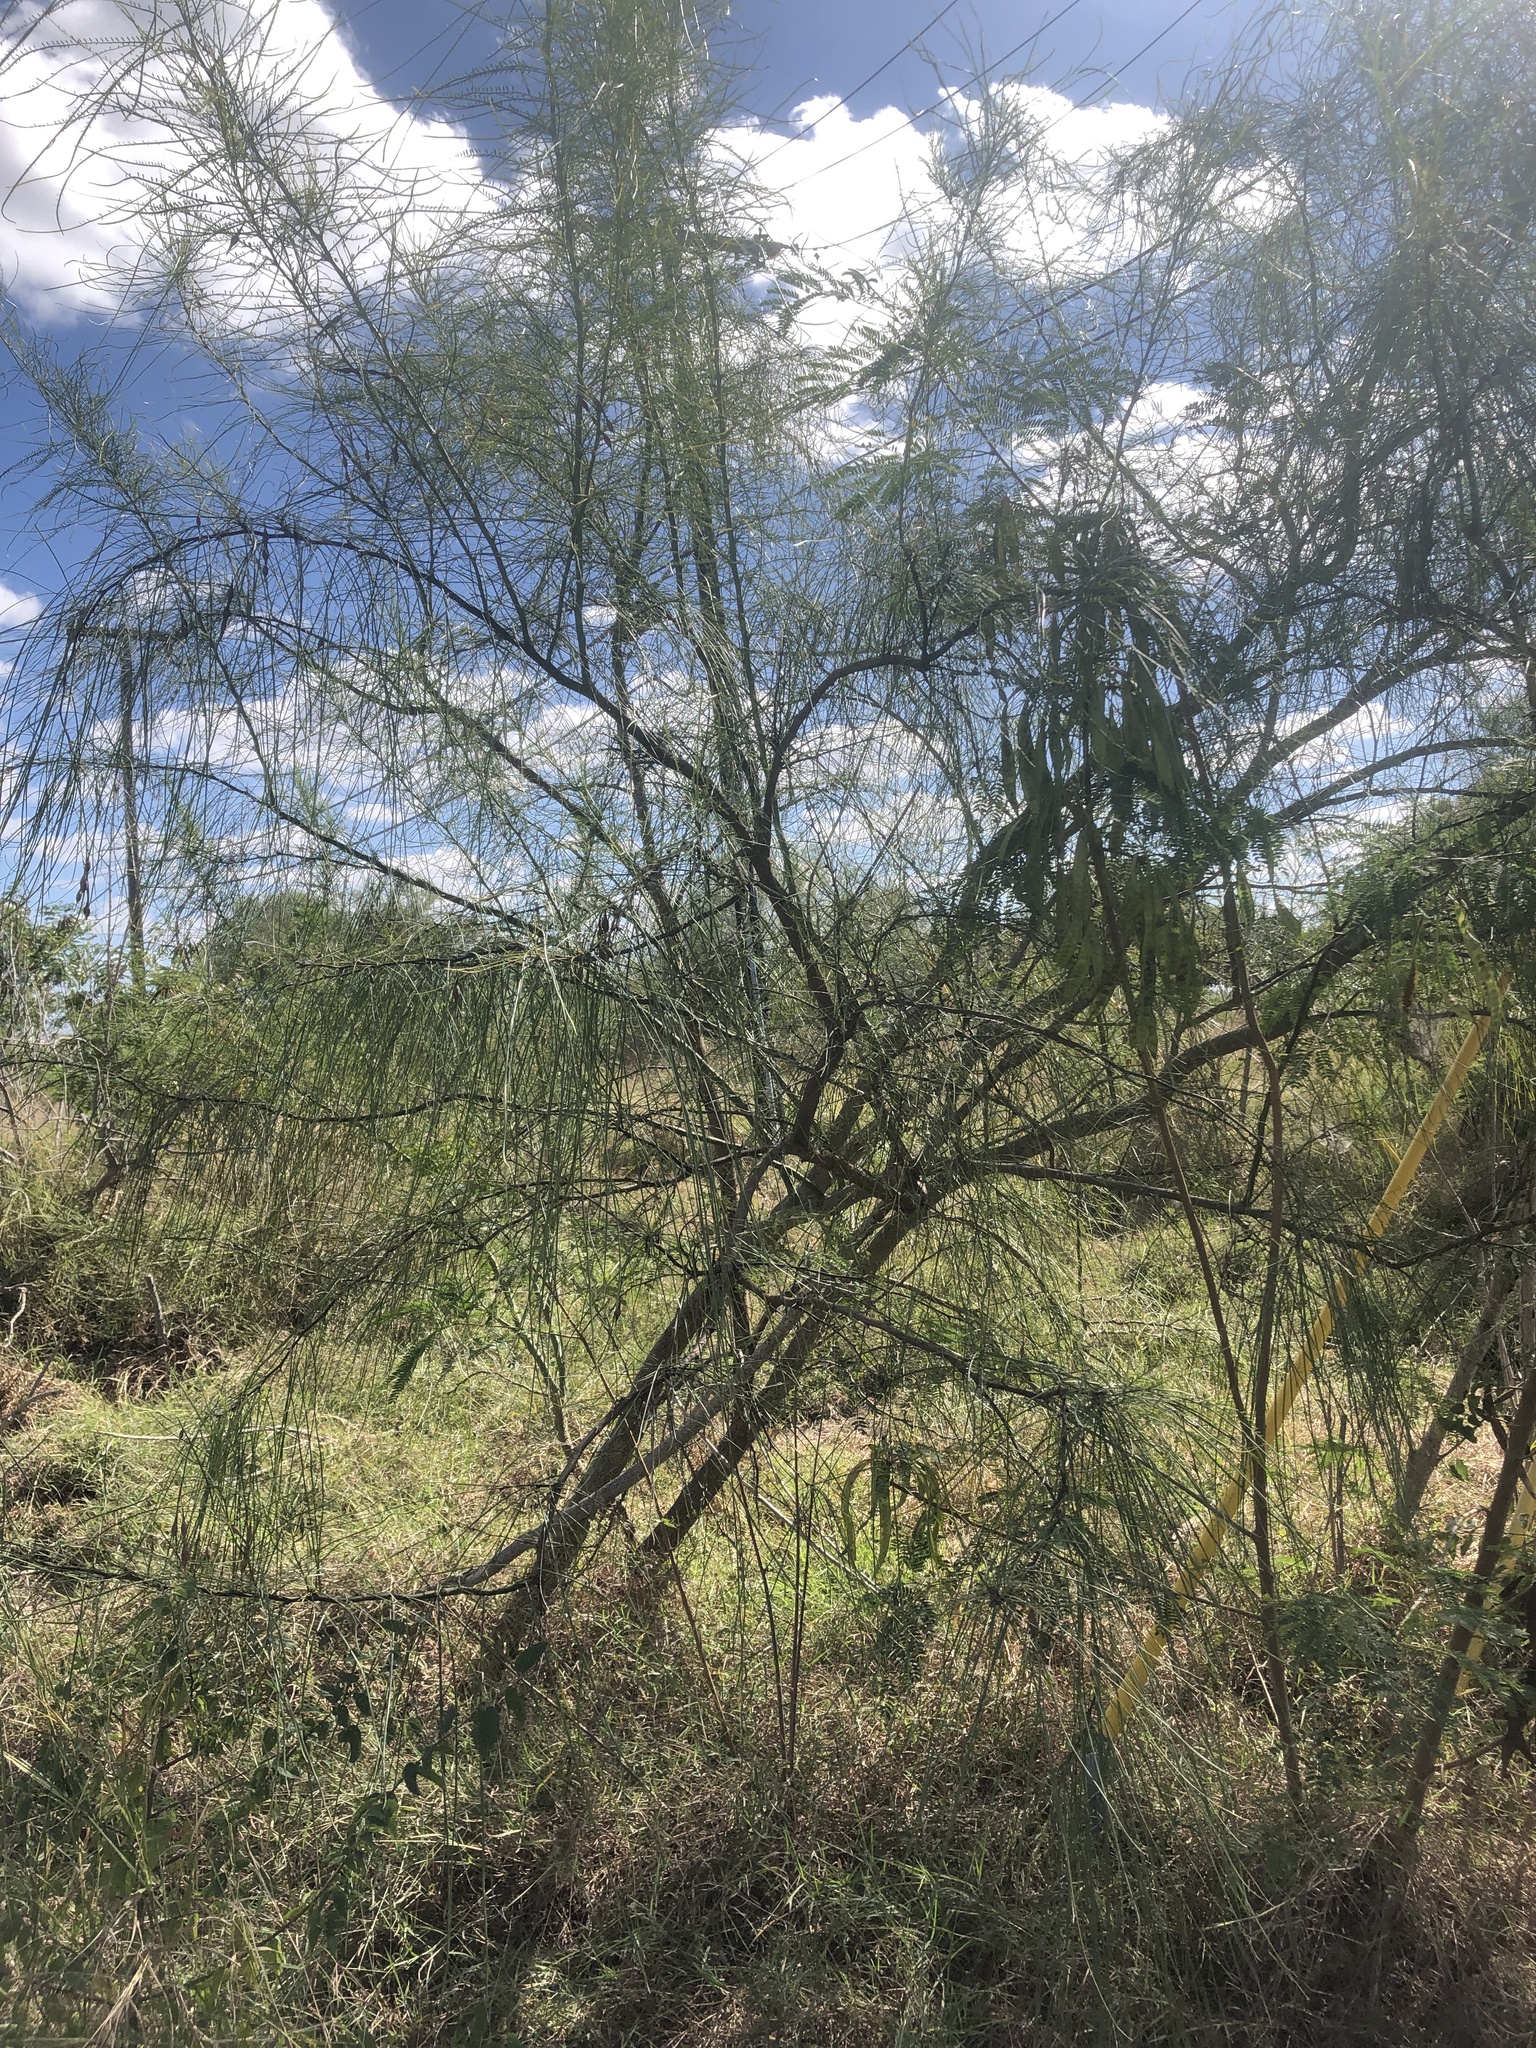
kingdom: Plantae
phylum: Tracheophyta
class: Magnoliopsida
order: Fabales
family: Fabaceae
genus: Parkinsonia
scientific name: Parkinsonia aculeata
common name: Jerusalem thorn
